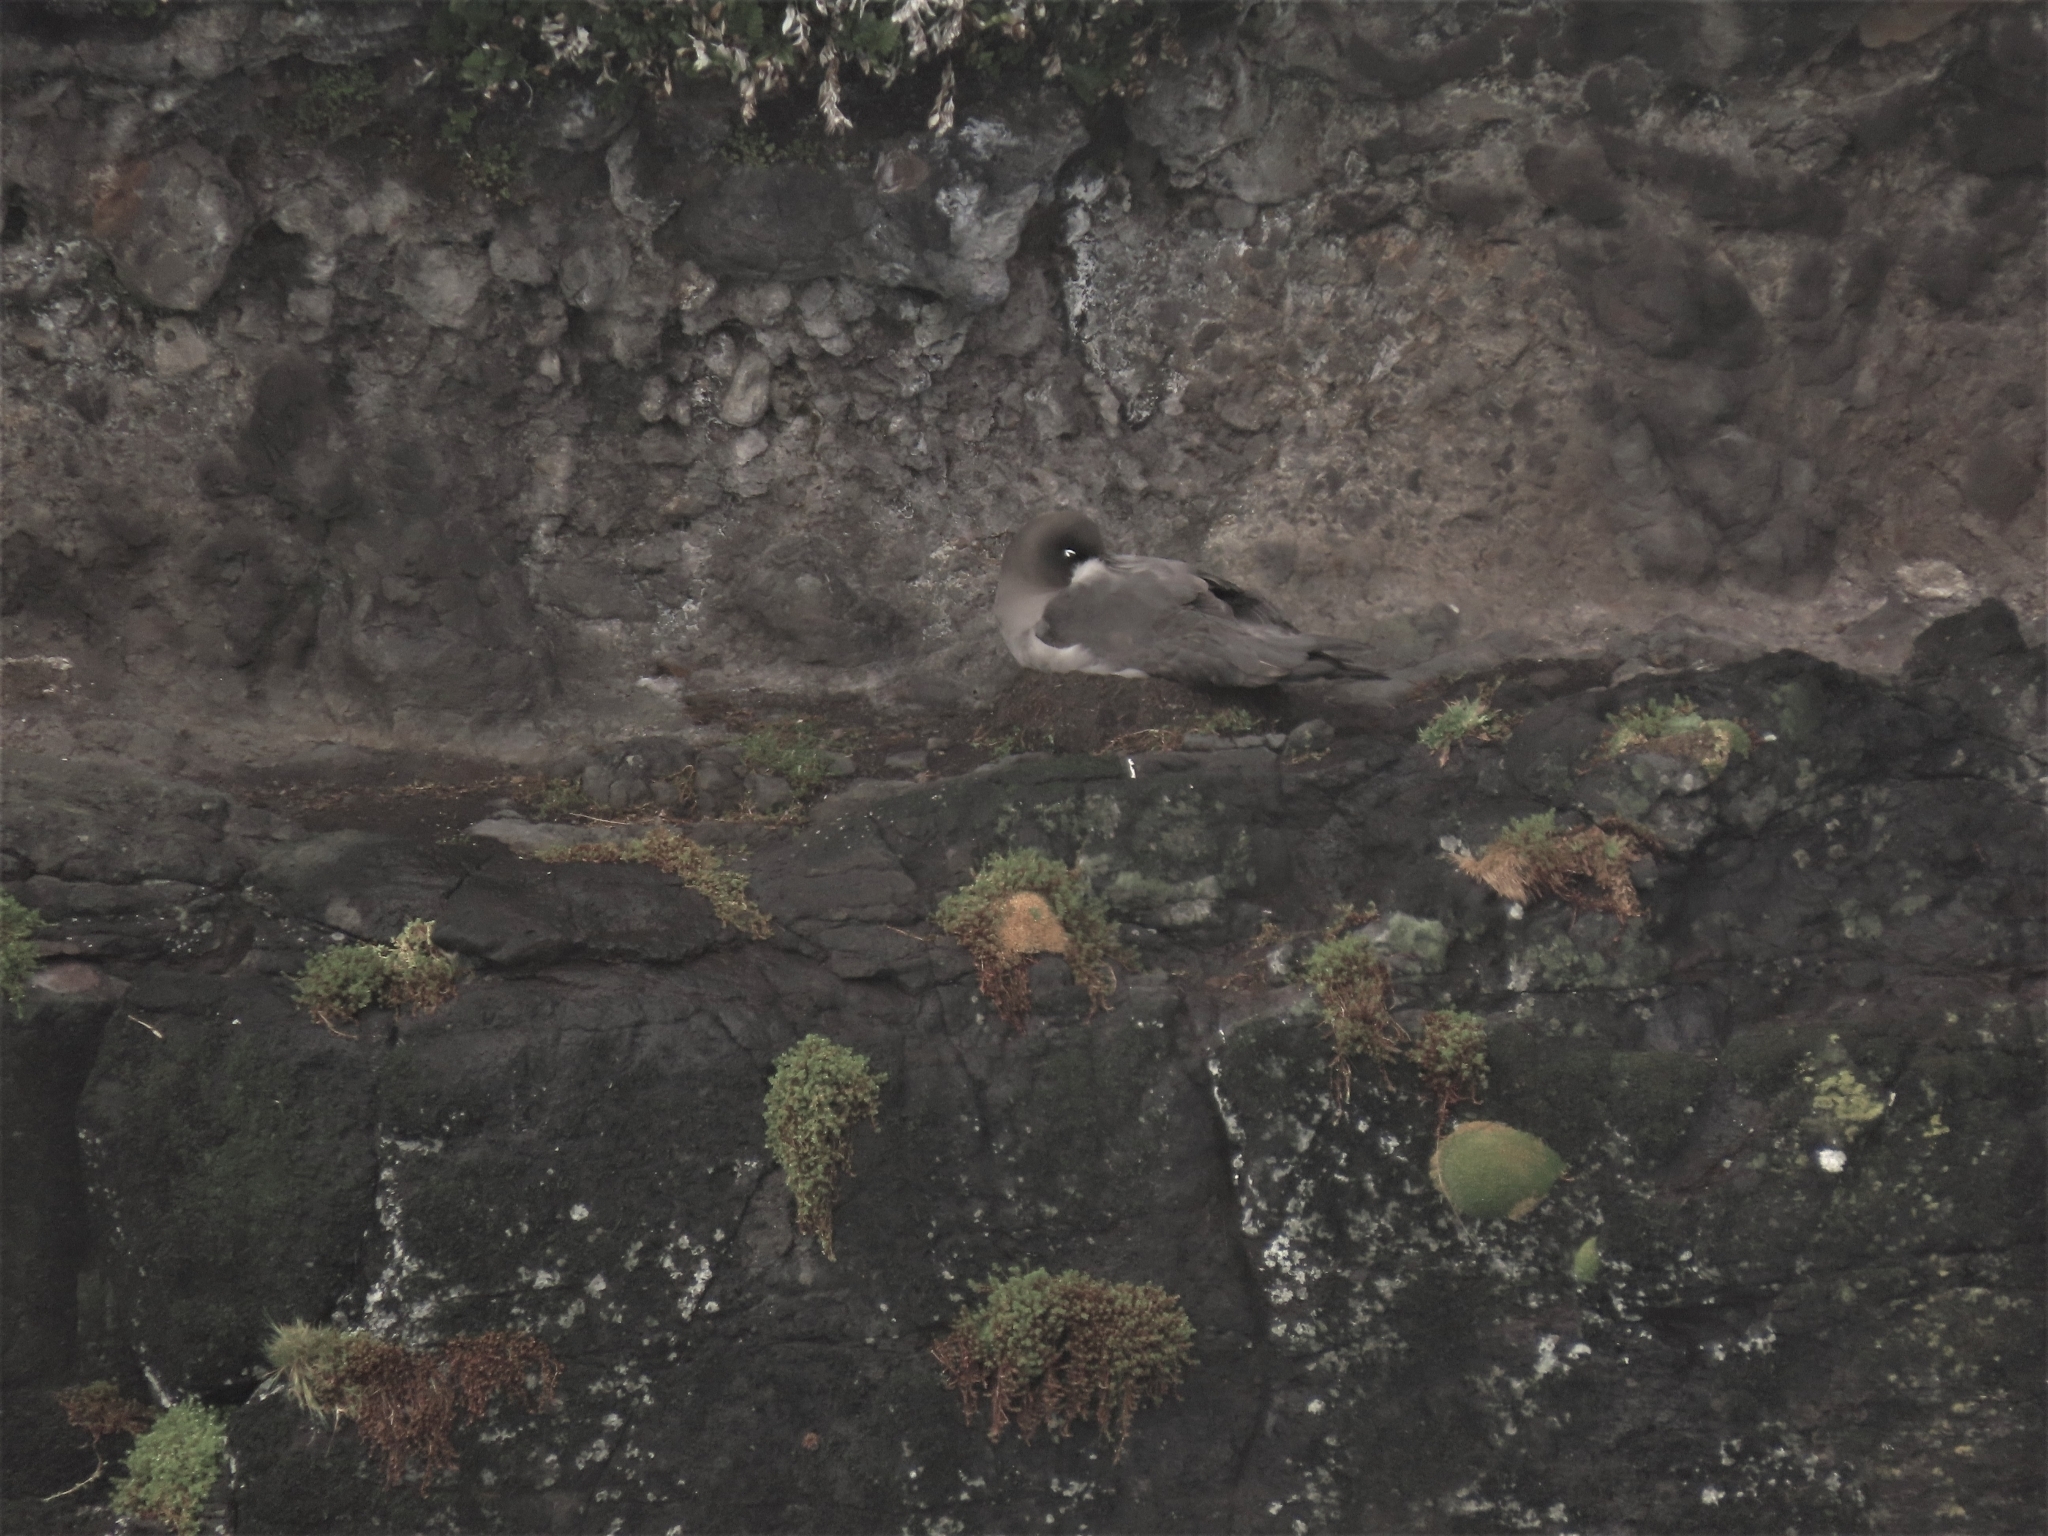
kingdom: Animalia
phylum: Chordata
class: Aves
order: Procellariiformes
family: Diomedeidae
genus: Phoebetria
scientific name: Phoebetria palpebrata
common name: Light-mantled albatross
